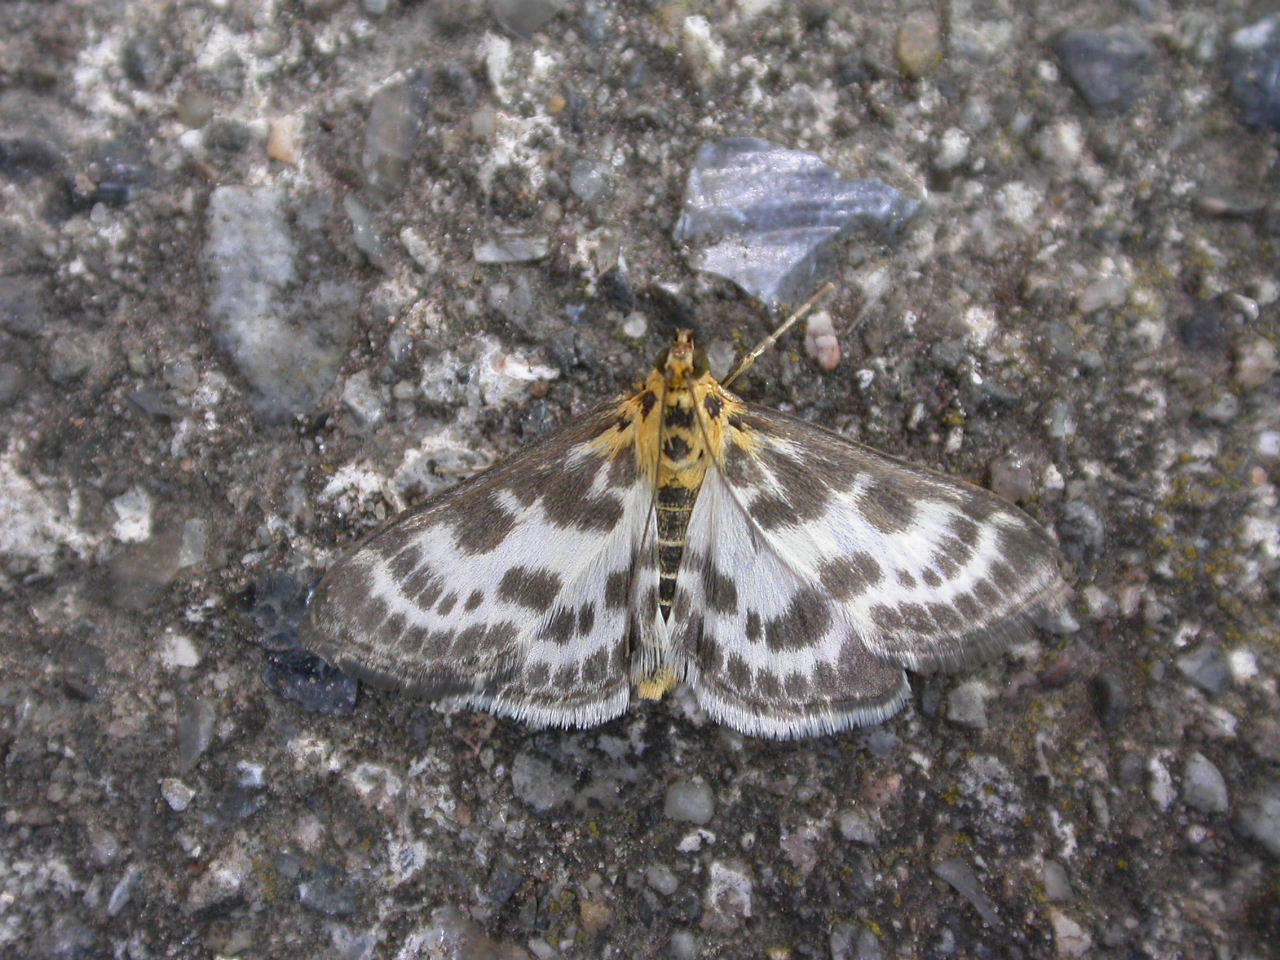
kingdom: Animalia
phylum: Arthropoda
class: Insecta
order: Lepidoptera
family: Crambidae
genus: Anania
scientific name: Anania hortulata
